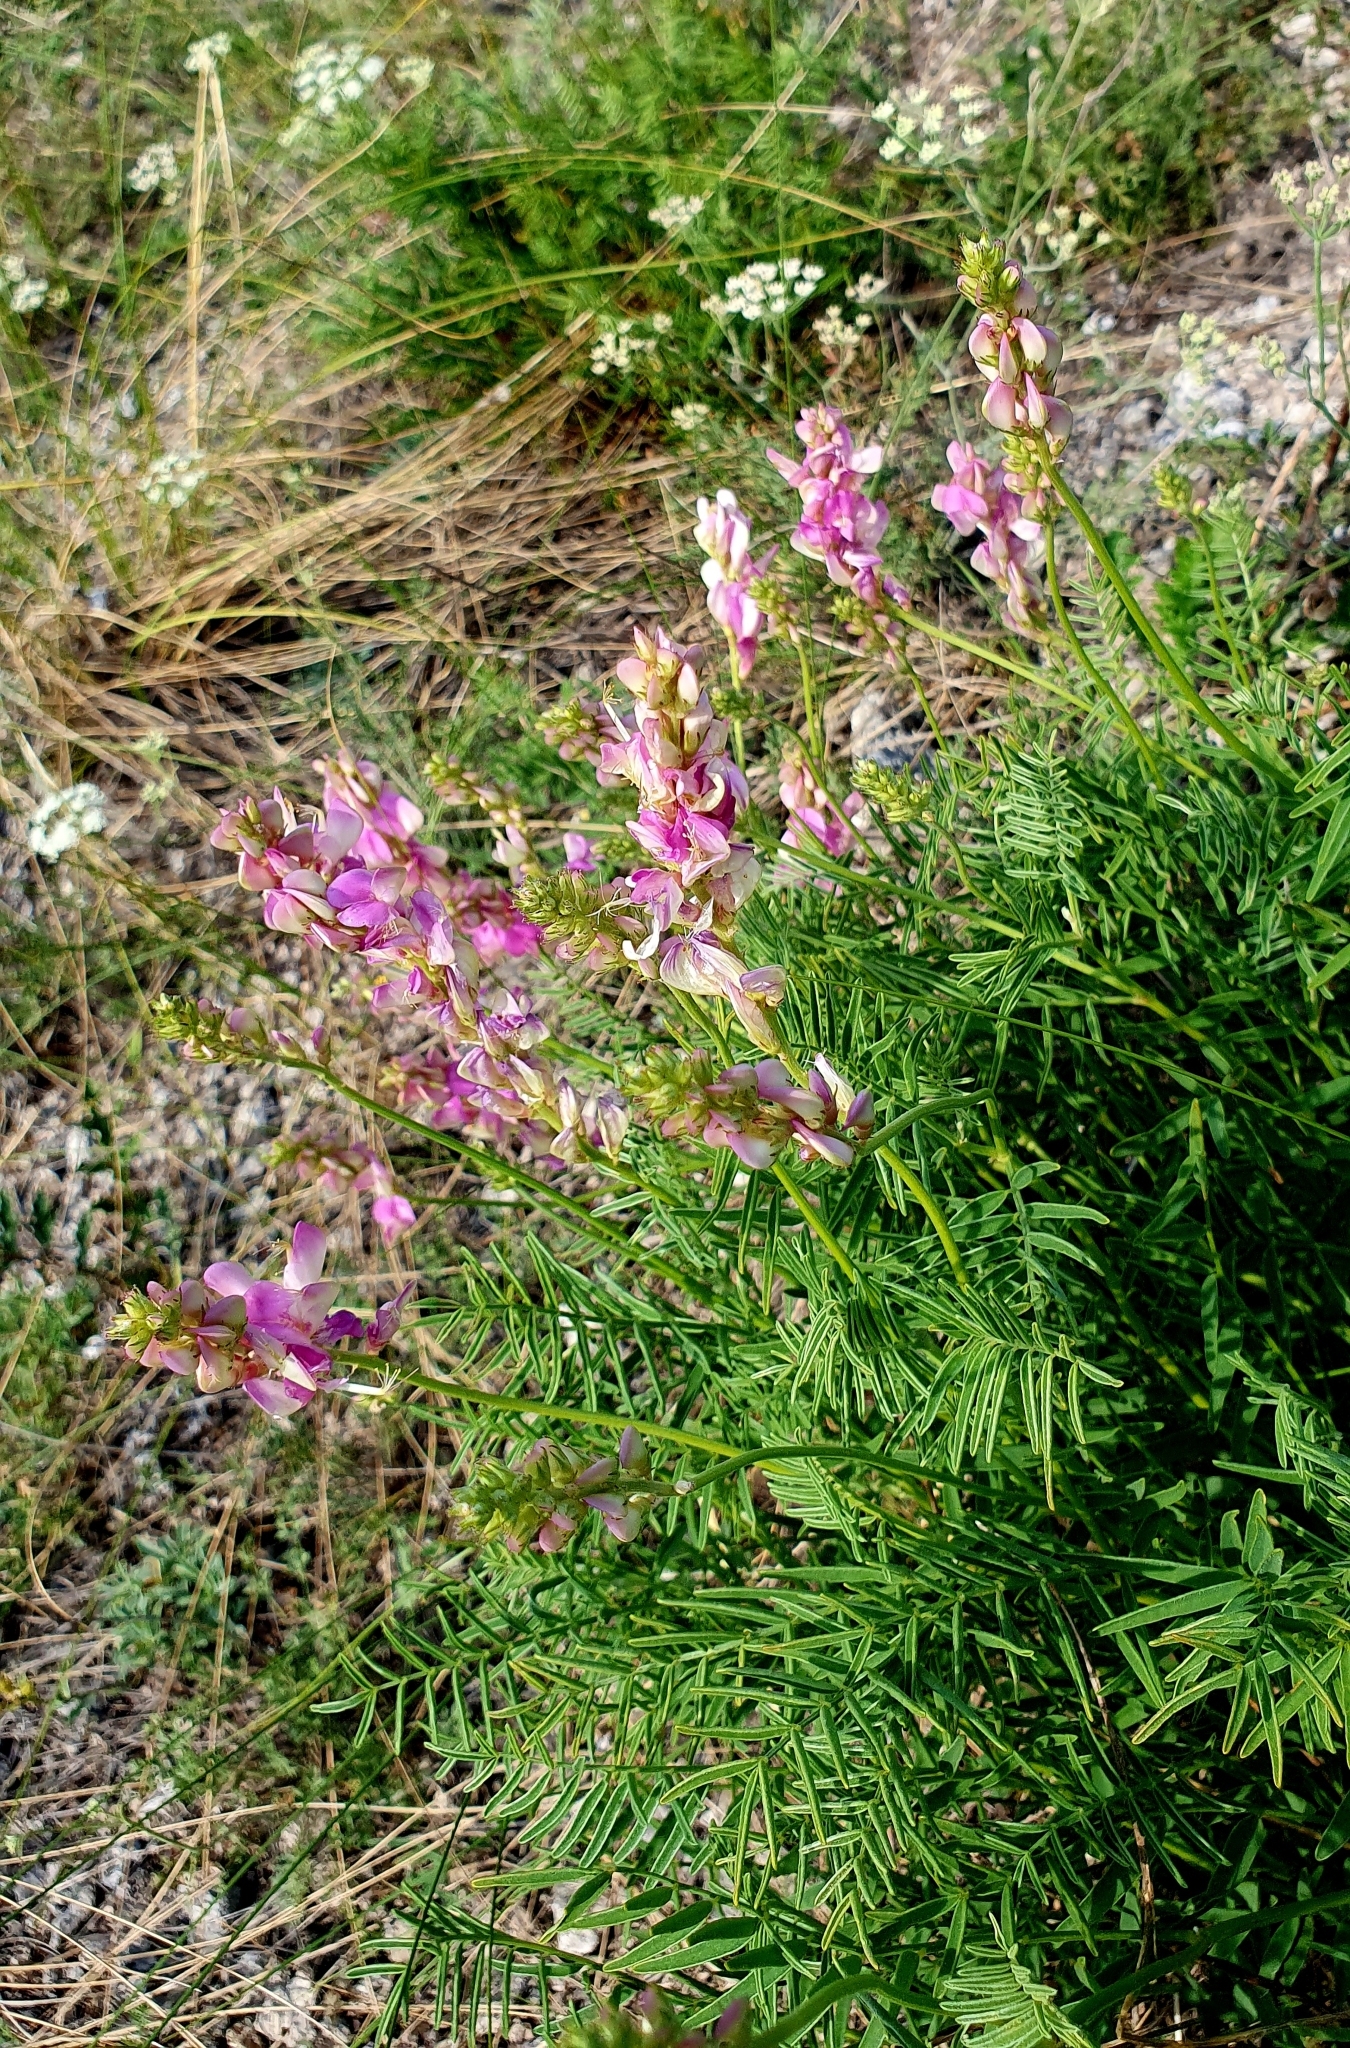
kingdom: Plantae
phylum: Tracheophyta
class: Magnoliopsida
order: Fabales
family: Fabaceae
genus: Hedysarum
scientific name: Hedysarum razoumovianum
